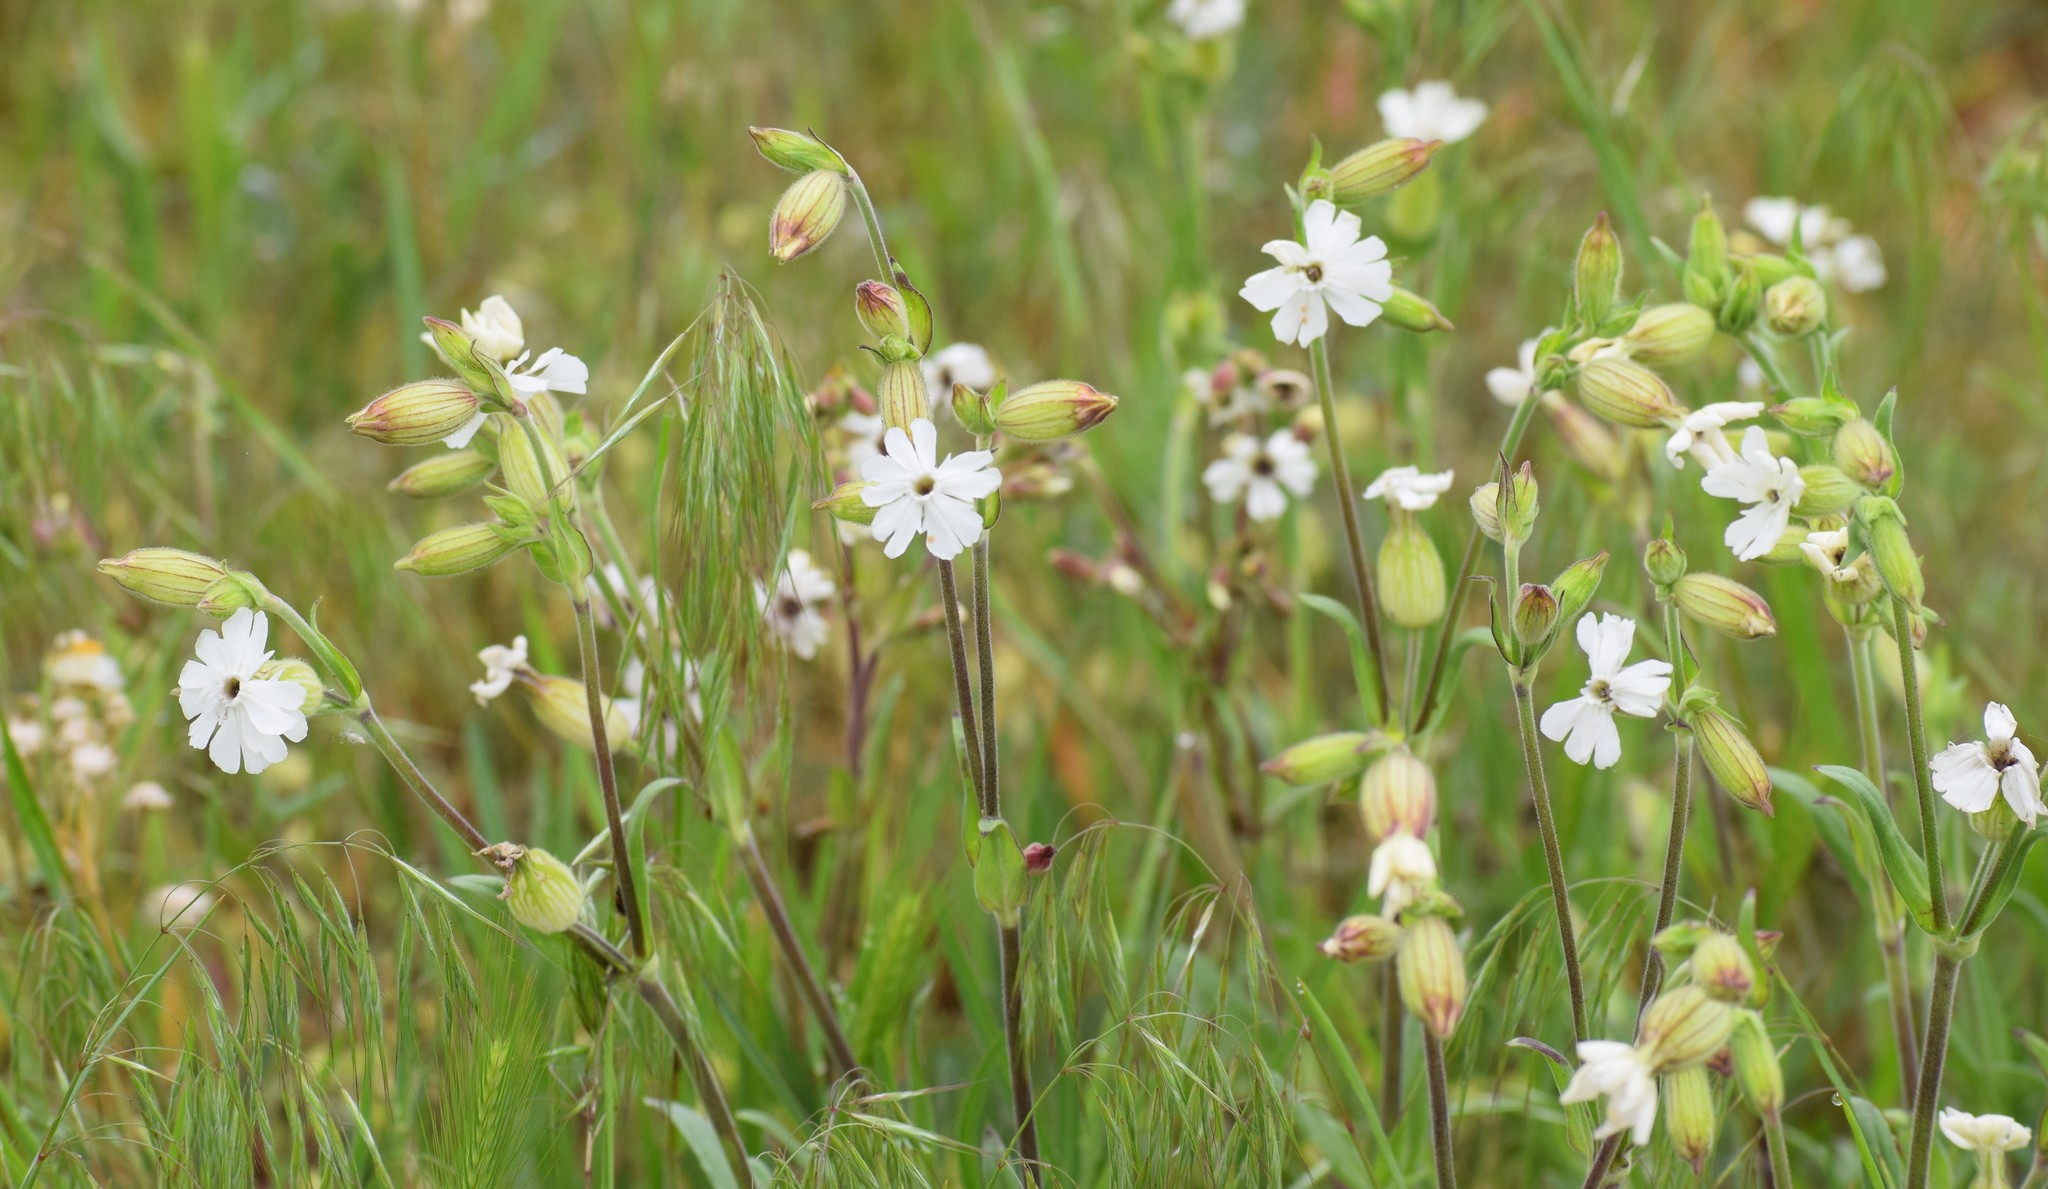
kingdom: Plantae
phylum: Tracheophyta
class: Magnoliopsida
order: Caryophyllales
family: Caryophyllaceae
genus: Silene
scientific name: Silene latifolia
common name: White campion
